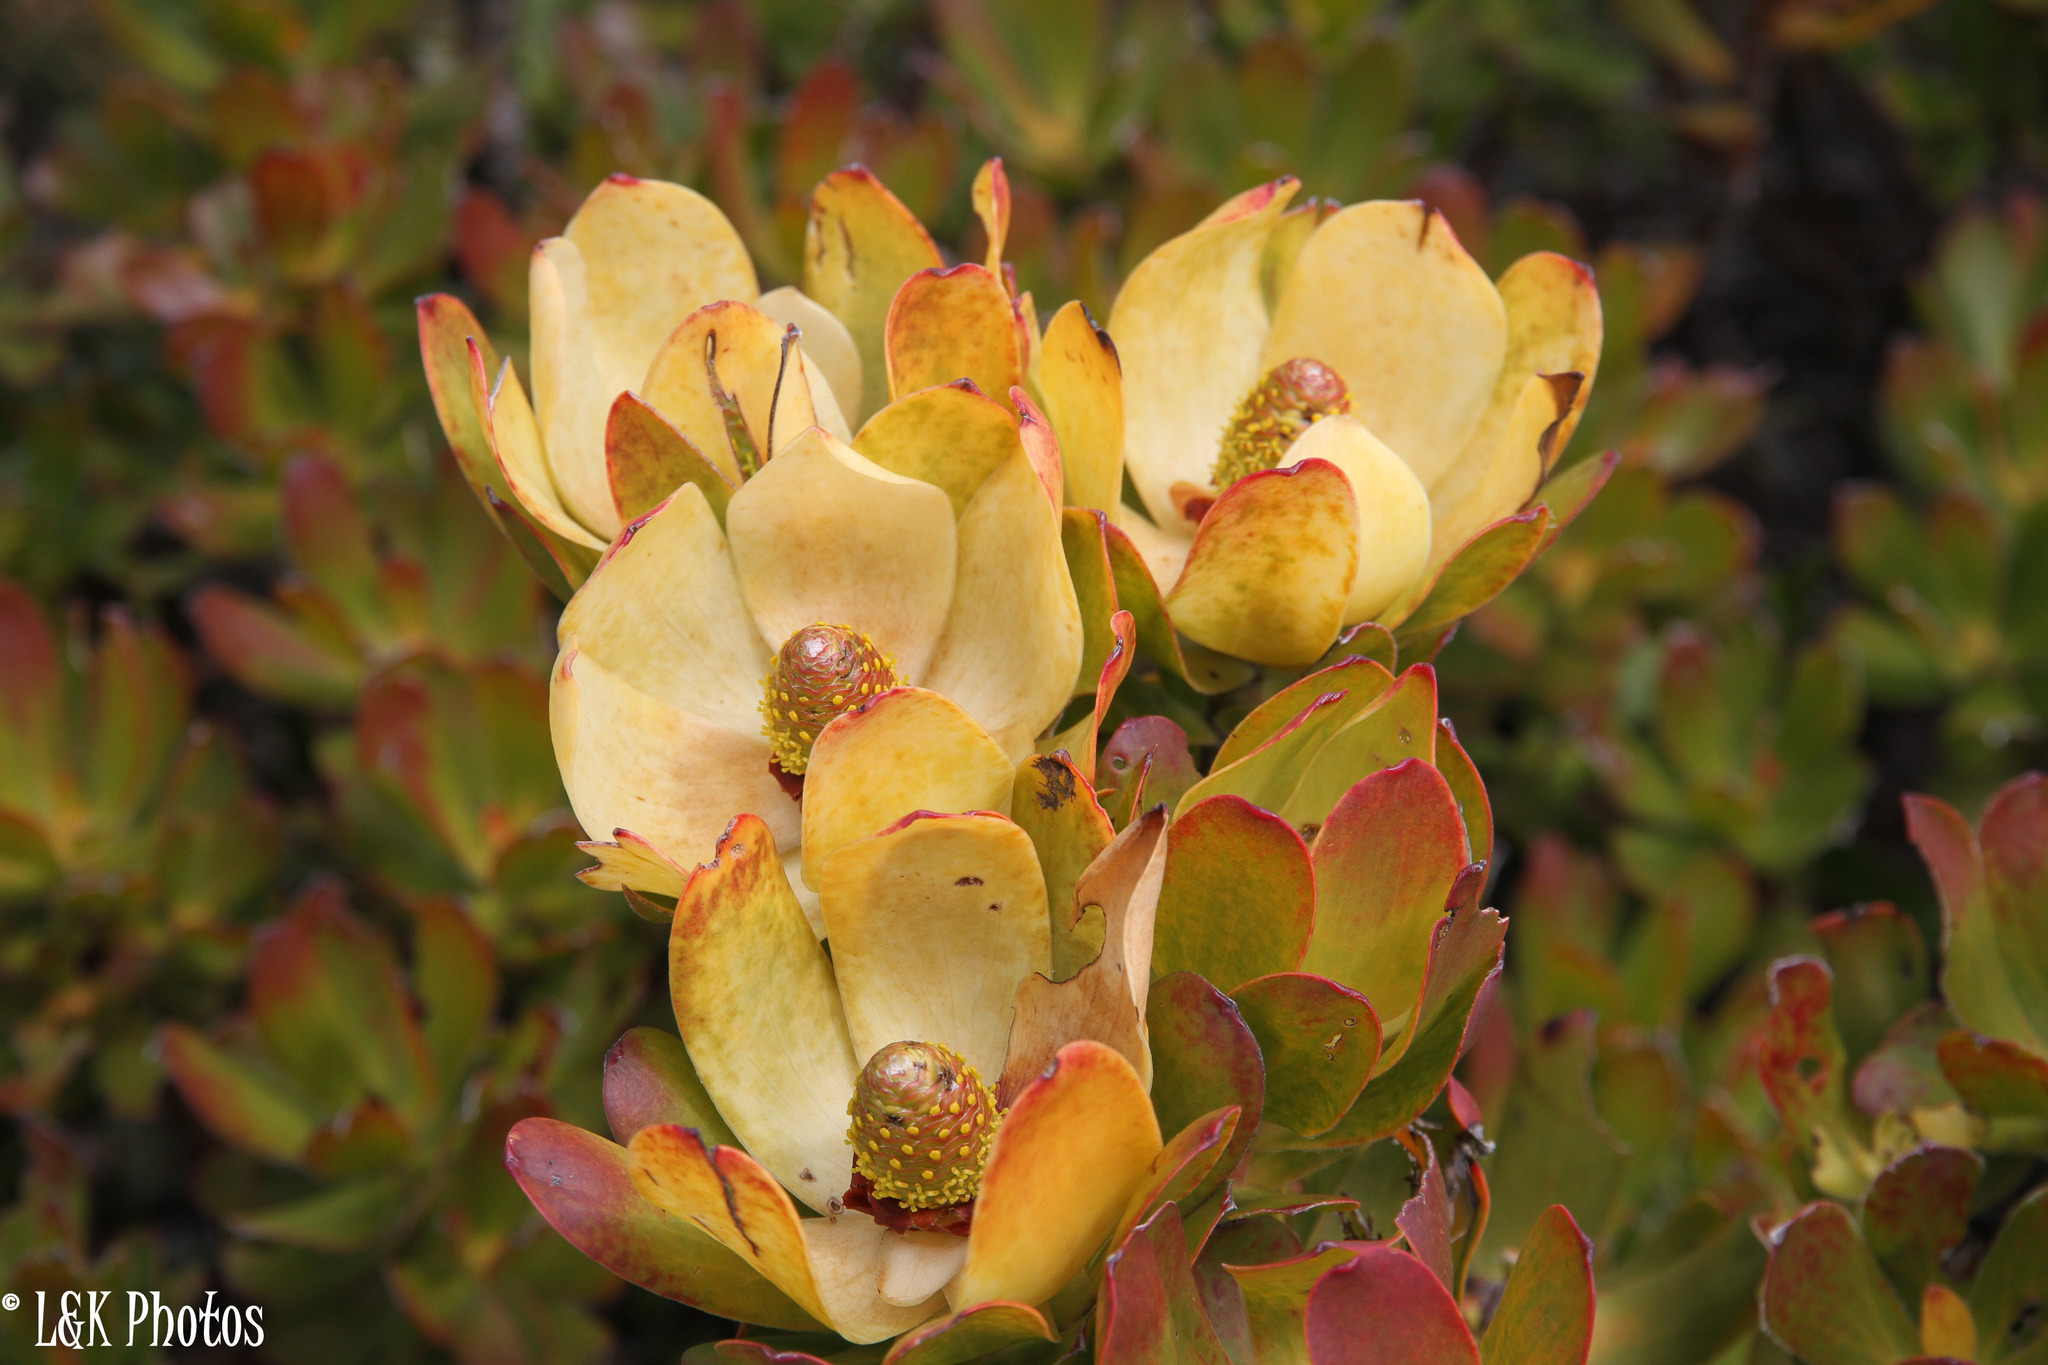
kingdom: Plantae
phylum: Tracheophyta
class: Magnoliopsida
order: Proteales
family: Proteaceae
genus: Leucadendron
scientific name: Leucadendron strobilinum
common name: Mountain rose
